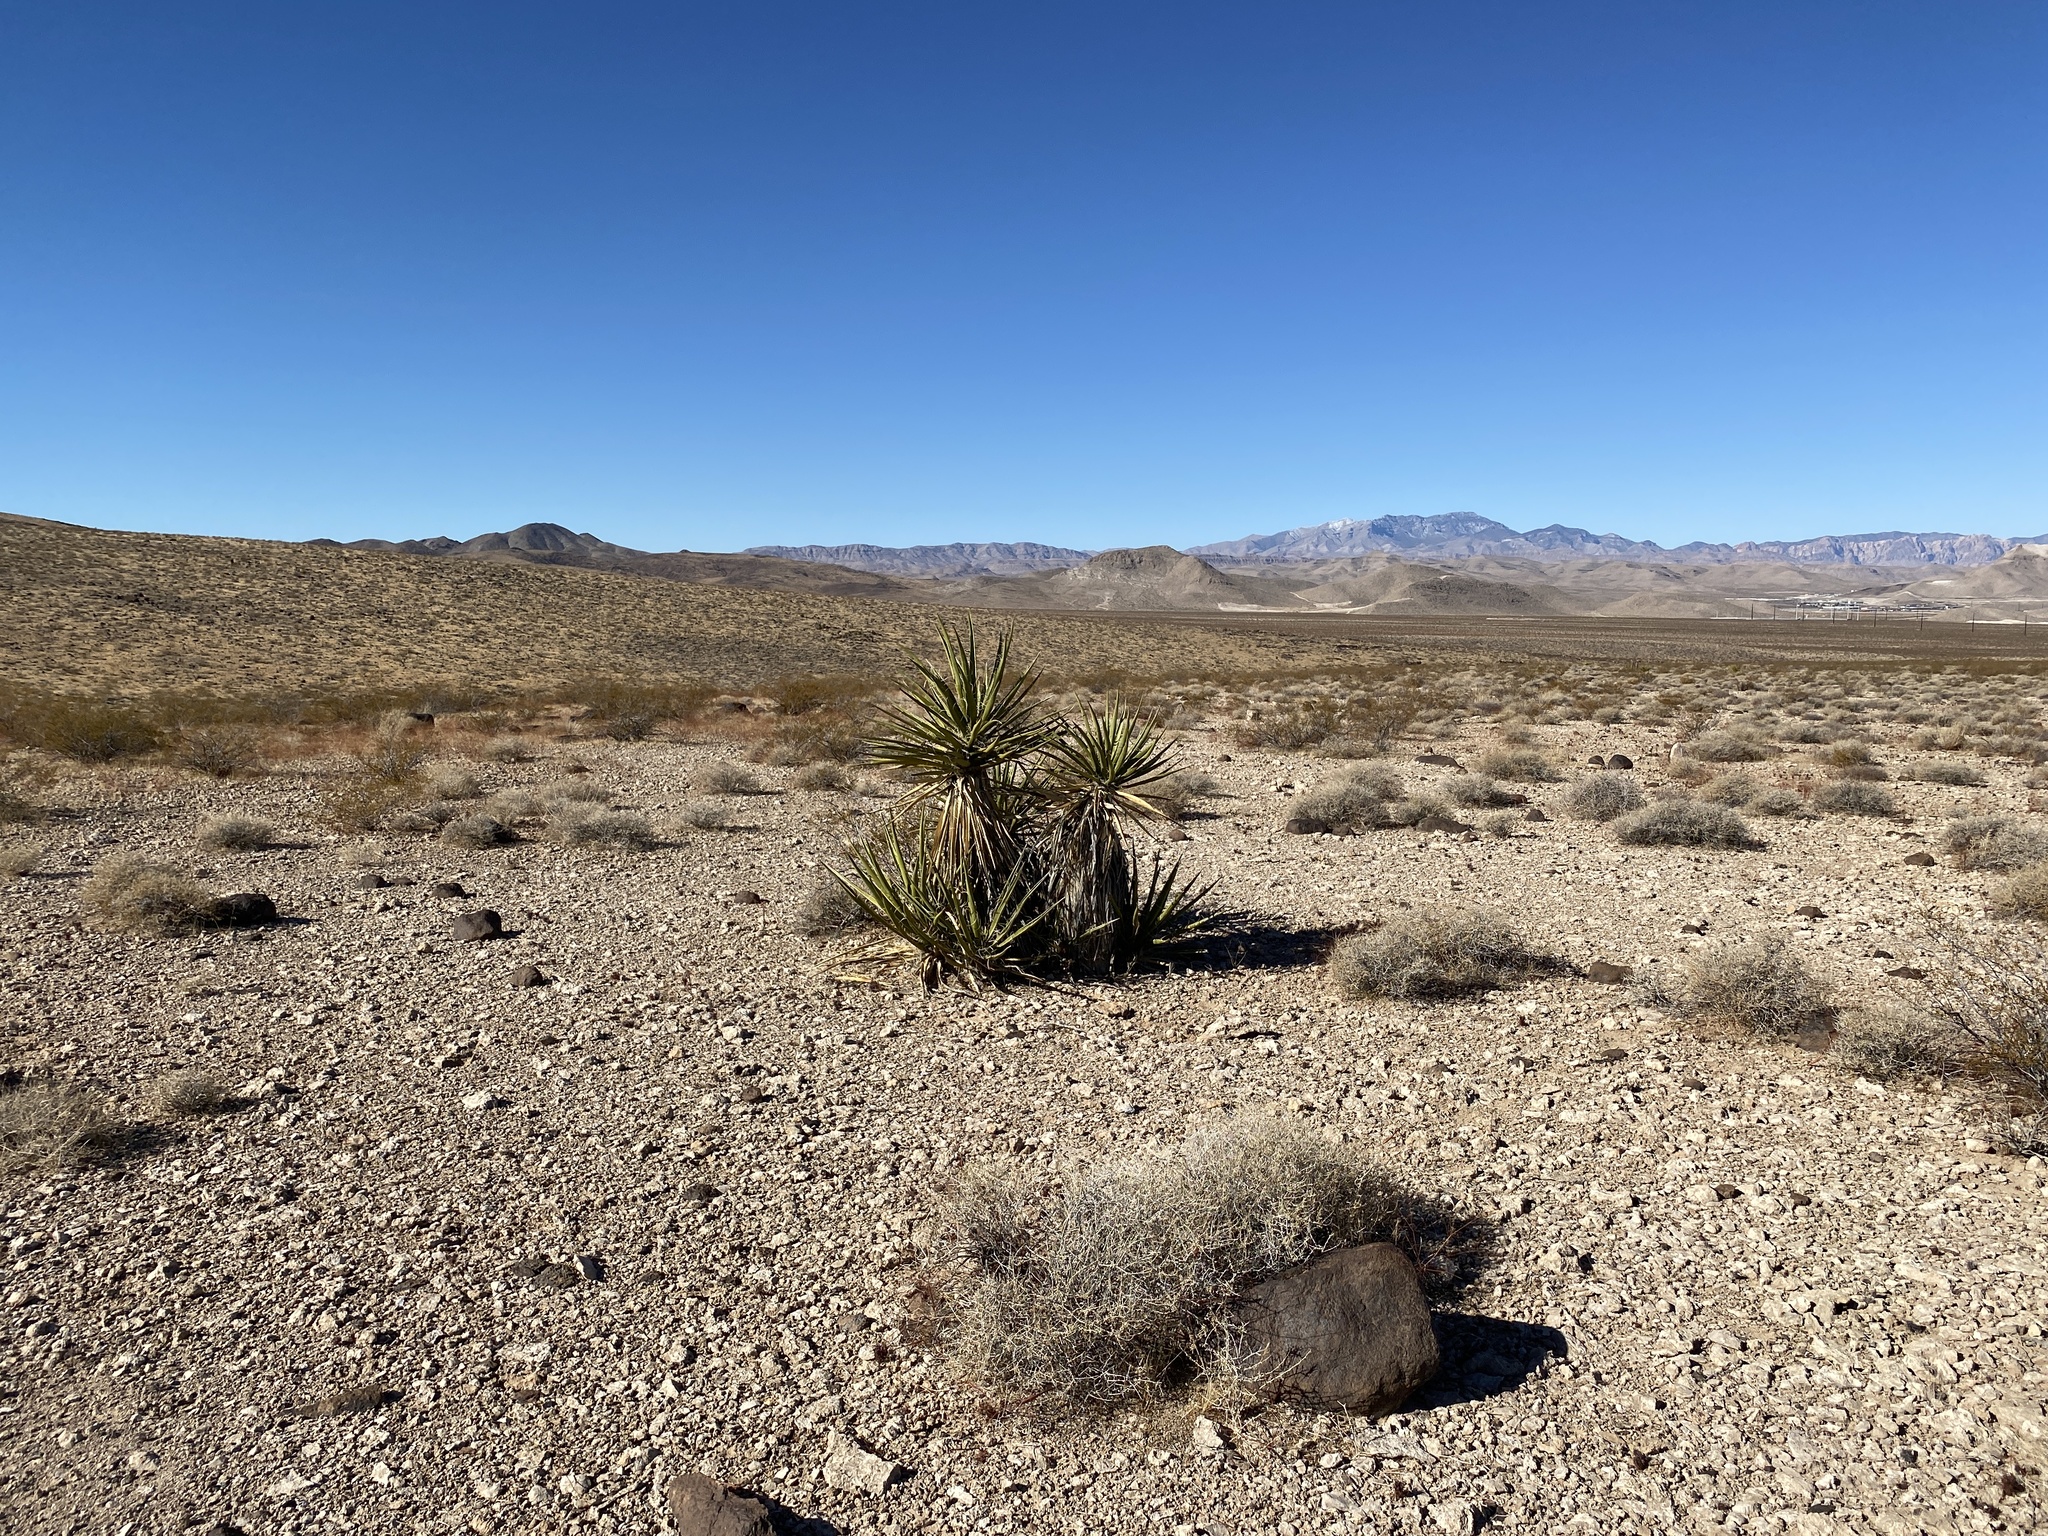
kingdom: Plantae
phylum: Tracheophyta
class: Liliopsida
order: Asparagales
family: Asparagaceae
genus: Yucca
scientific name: Yucca schidigera
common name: Mojave yucca
